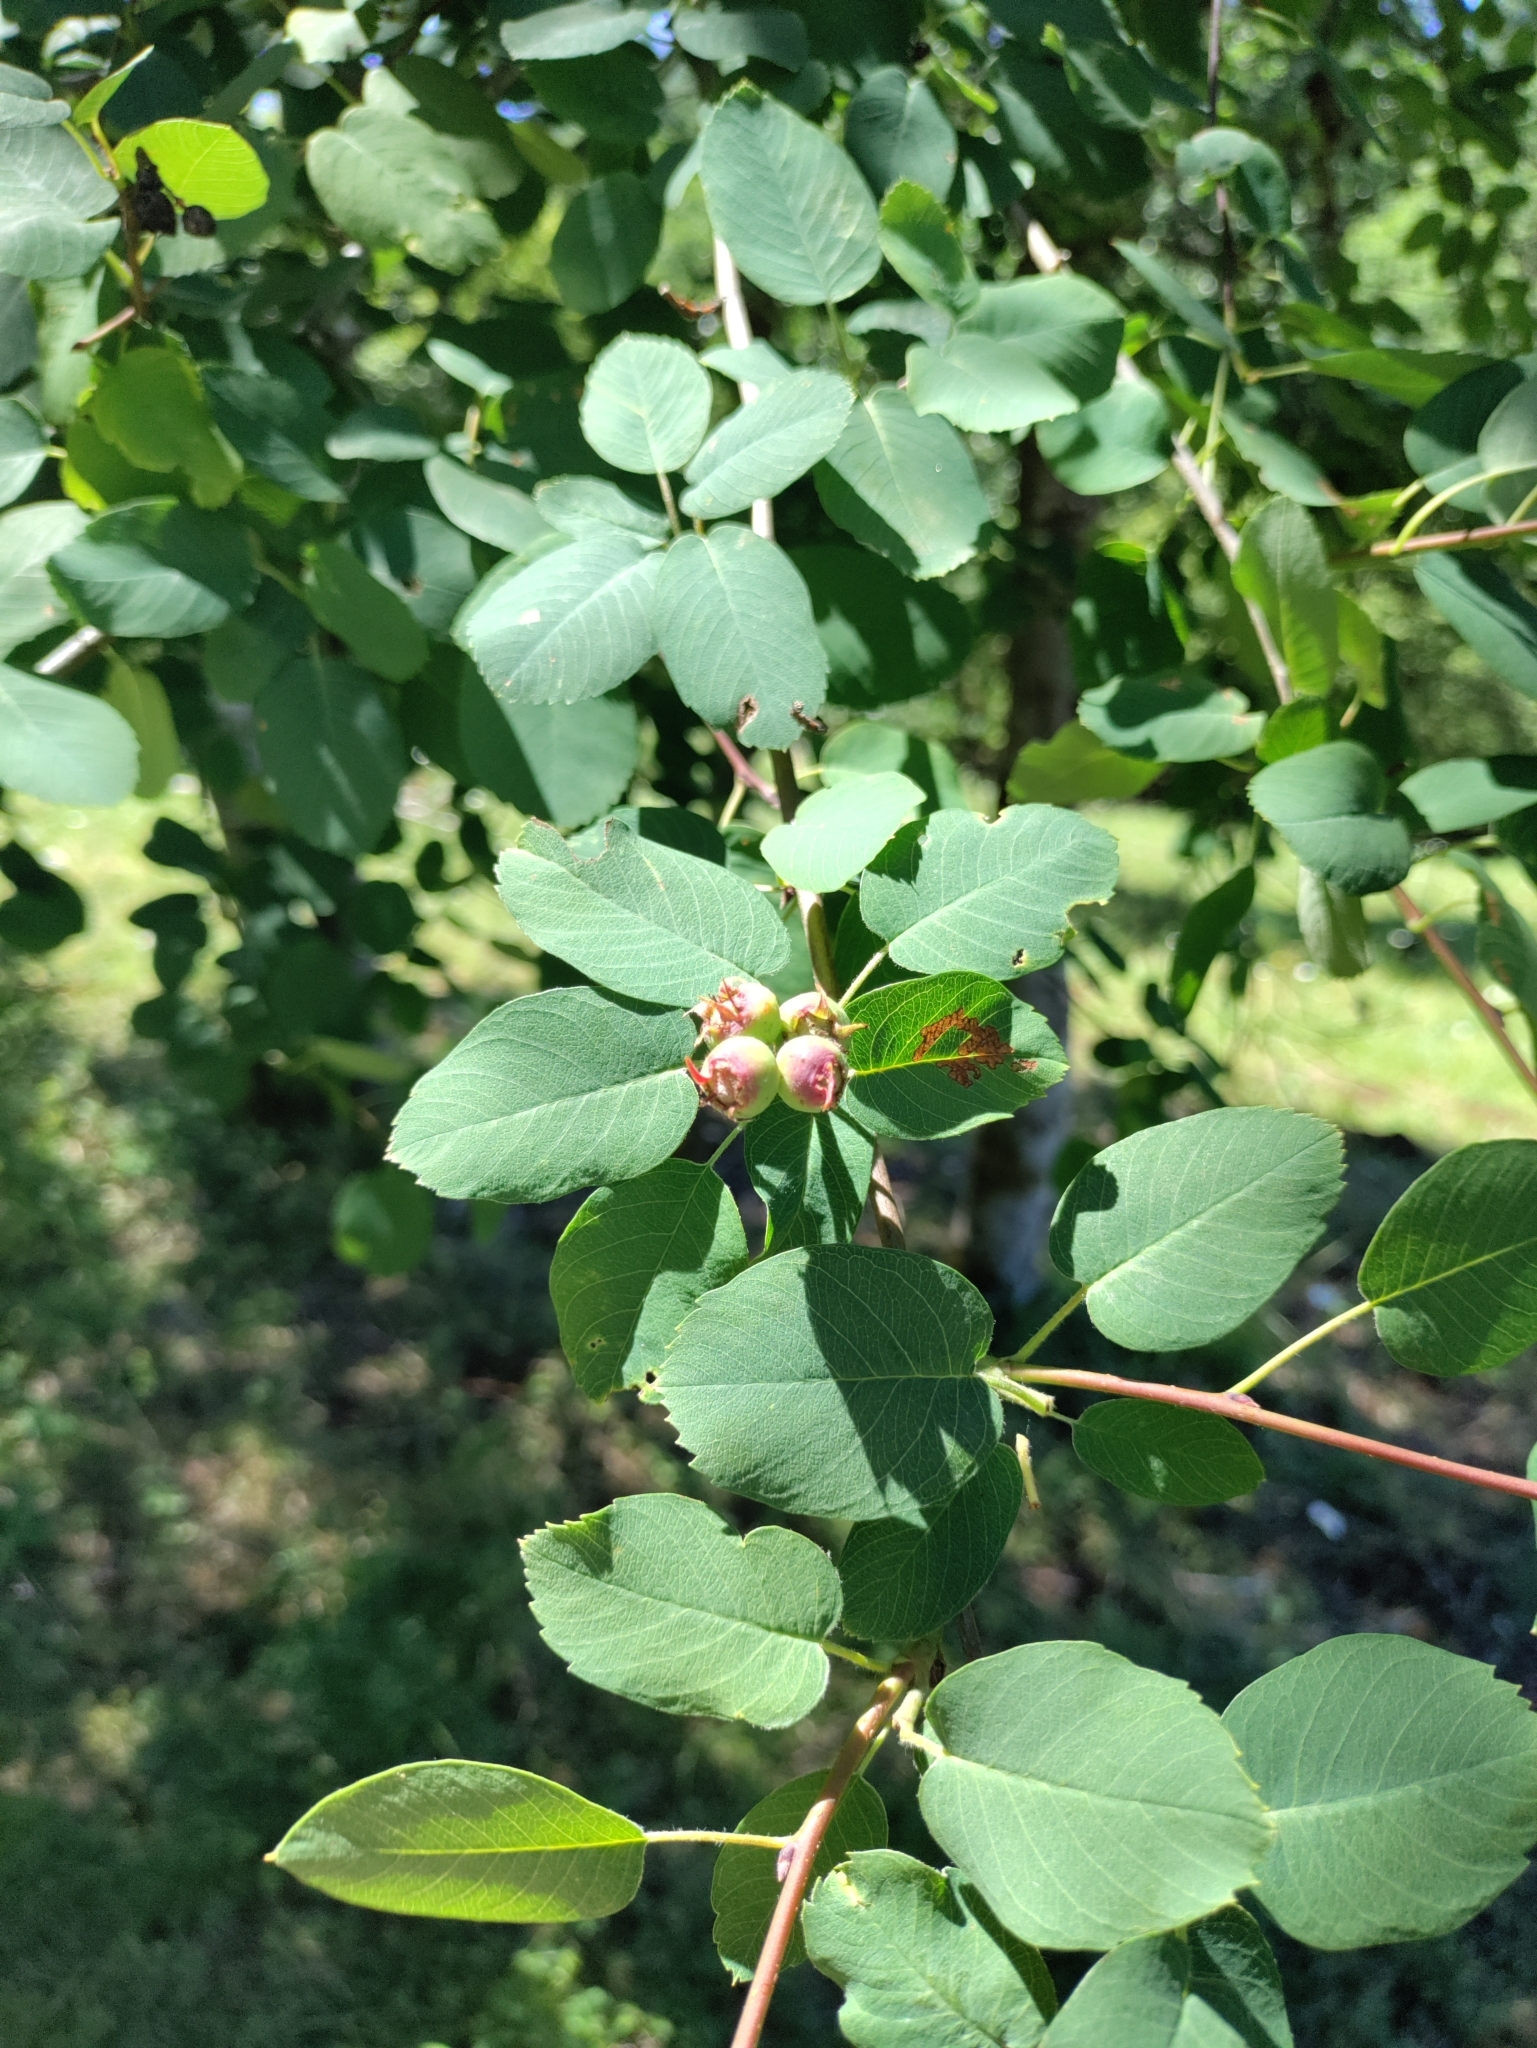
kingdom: Plantae
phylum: Tracheophyta
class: Magnoliopsida
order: Rosales
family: Rosaceae
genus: Amelanchier
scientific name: Amelanchier alnifolia
